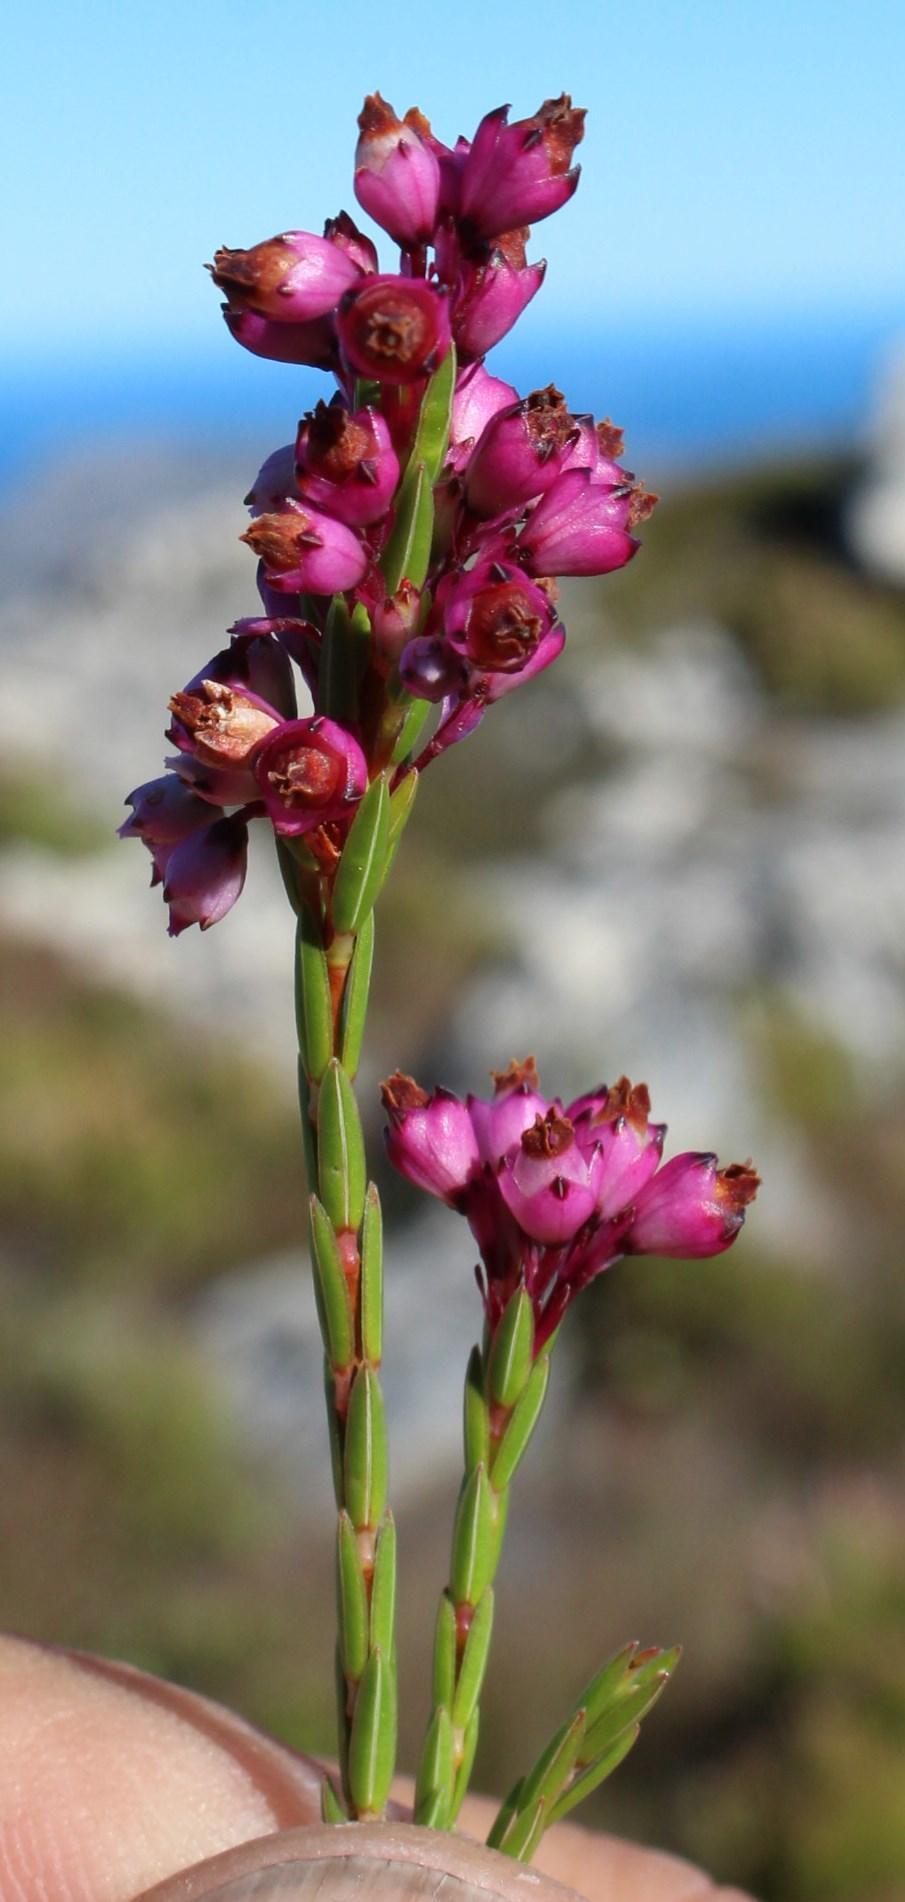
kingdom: Plantae
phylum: Tracheophyta
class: Magnoliopsida
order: Ericales
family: Ericaceae
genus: Erica
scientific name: Erica corifolia
